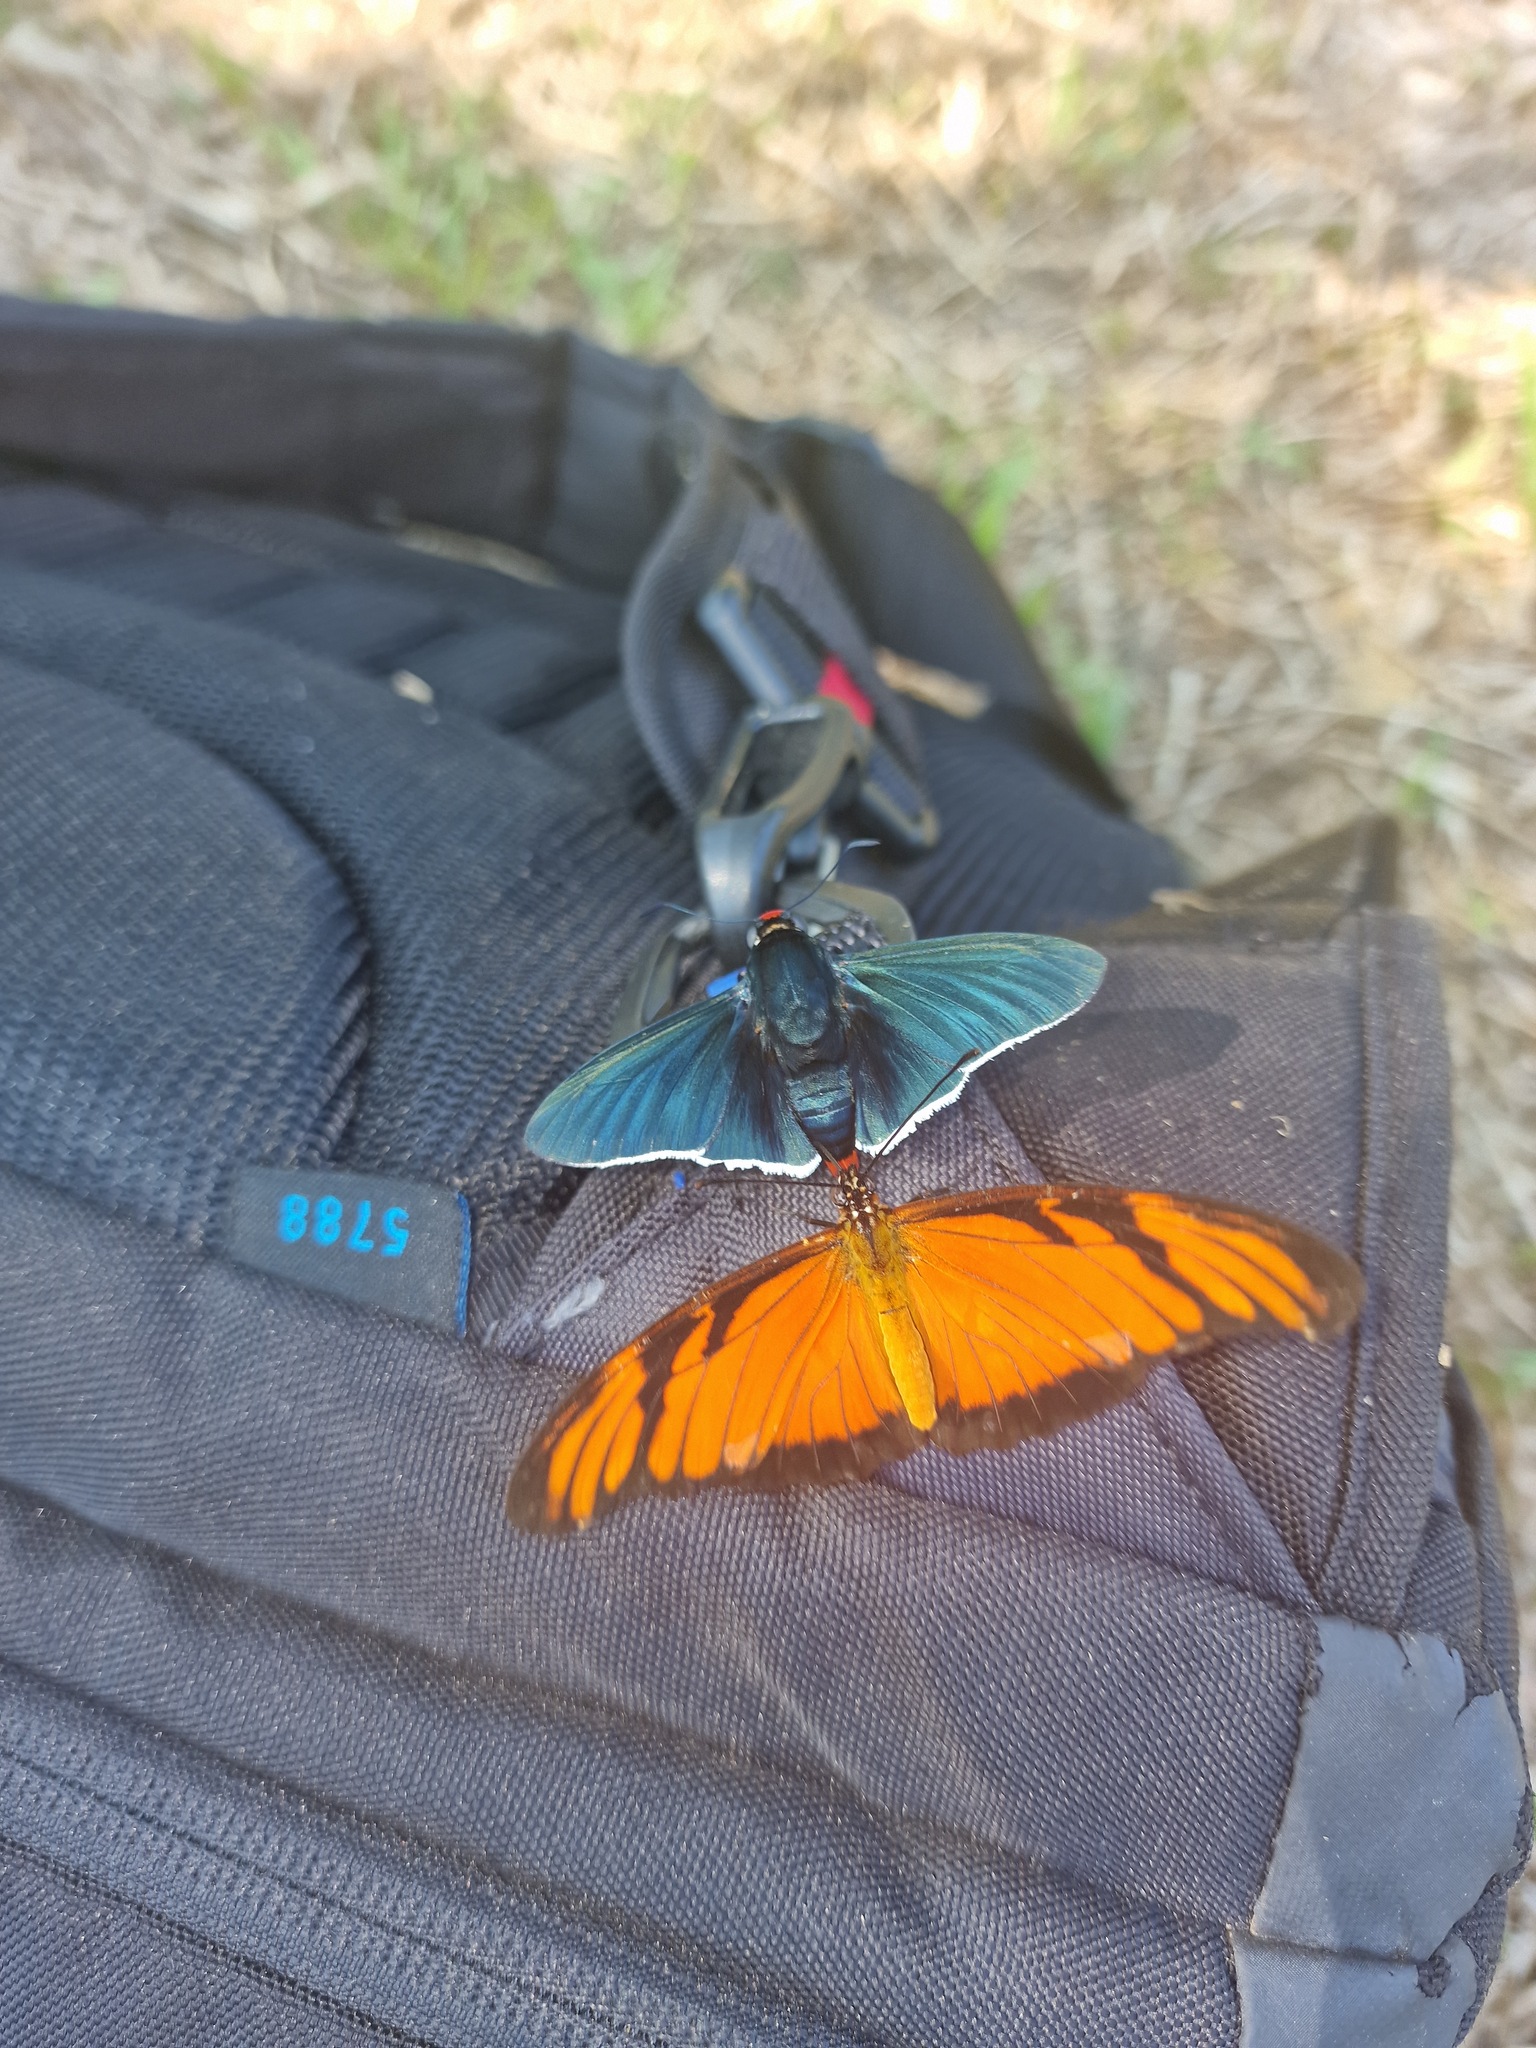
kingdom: Animalia
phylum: Arthropoda
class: Insecta
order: Lepidoptera
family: Nymphalidae
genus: Dione
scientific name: Dione juno
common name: Juno silverspot
